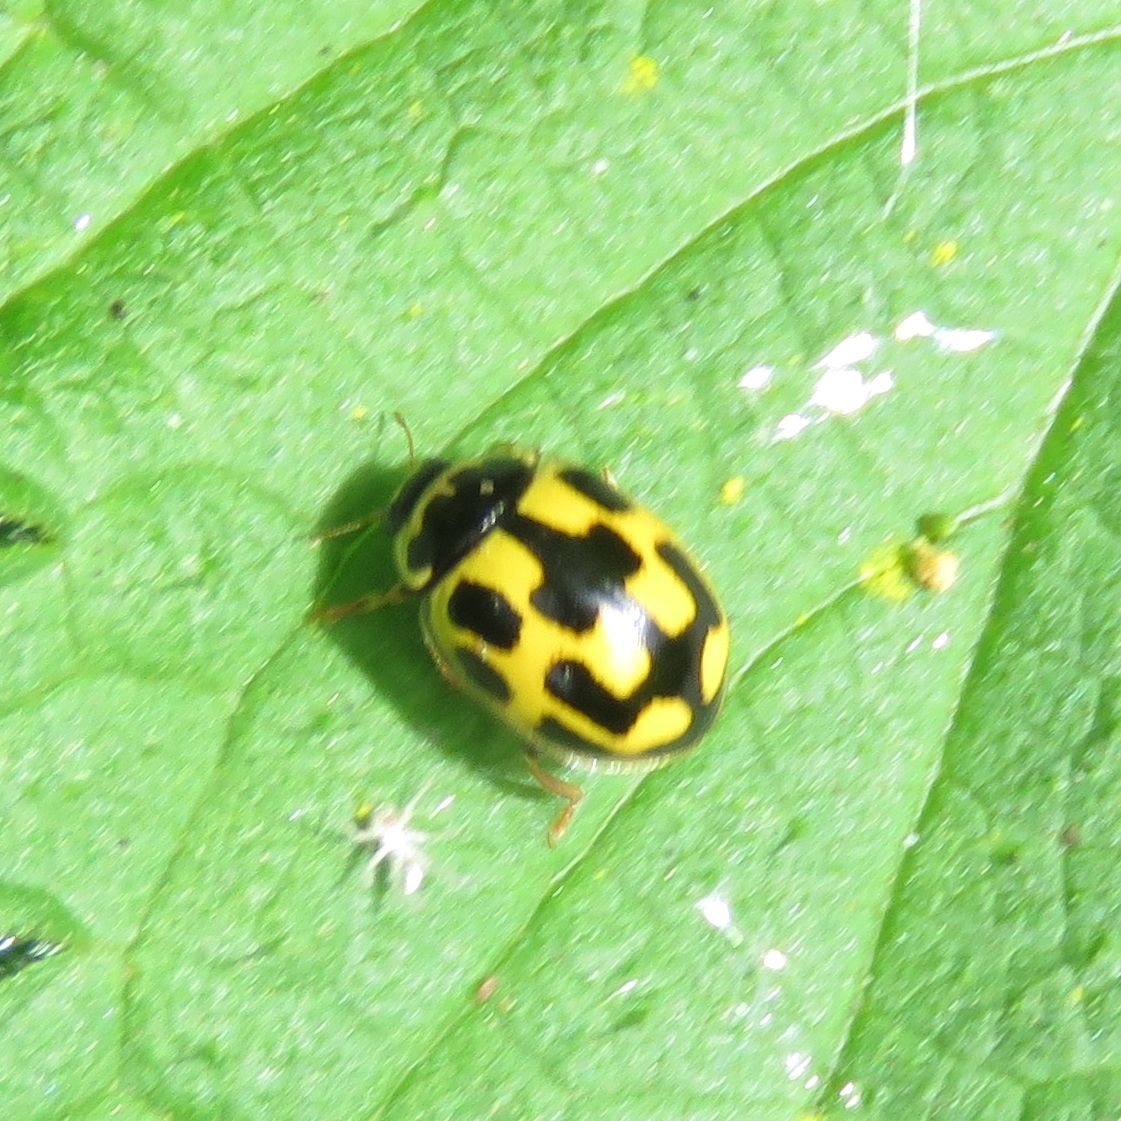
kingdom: Animalia
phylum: Arthropoda
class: Insecta
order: Coleoptera
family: Coccinellidae
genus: Propylaea
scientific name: Propylaea quatuordecimpunctata
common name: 14-spotted ladybird beetle
